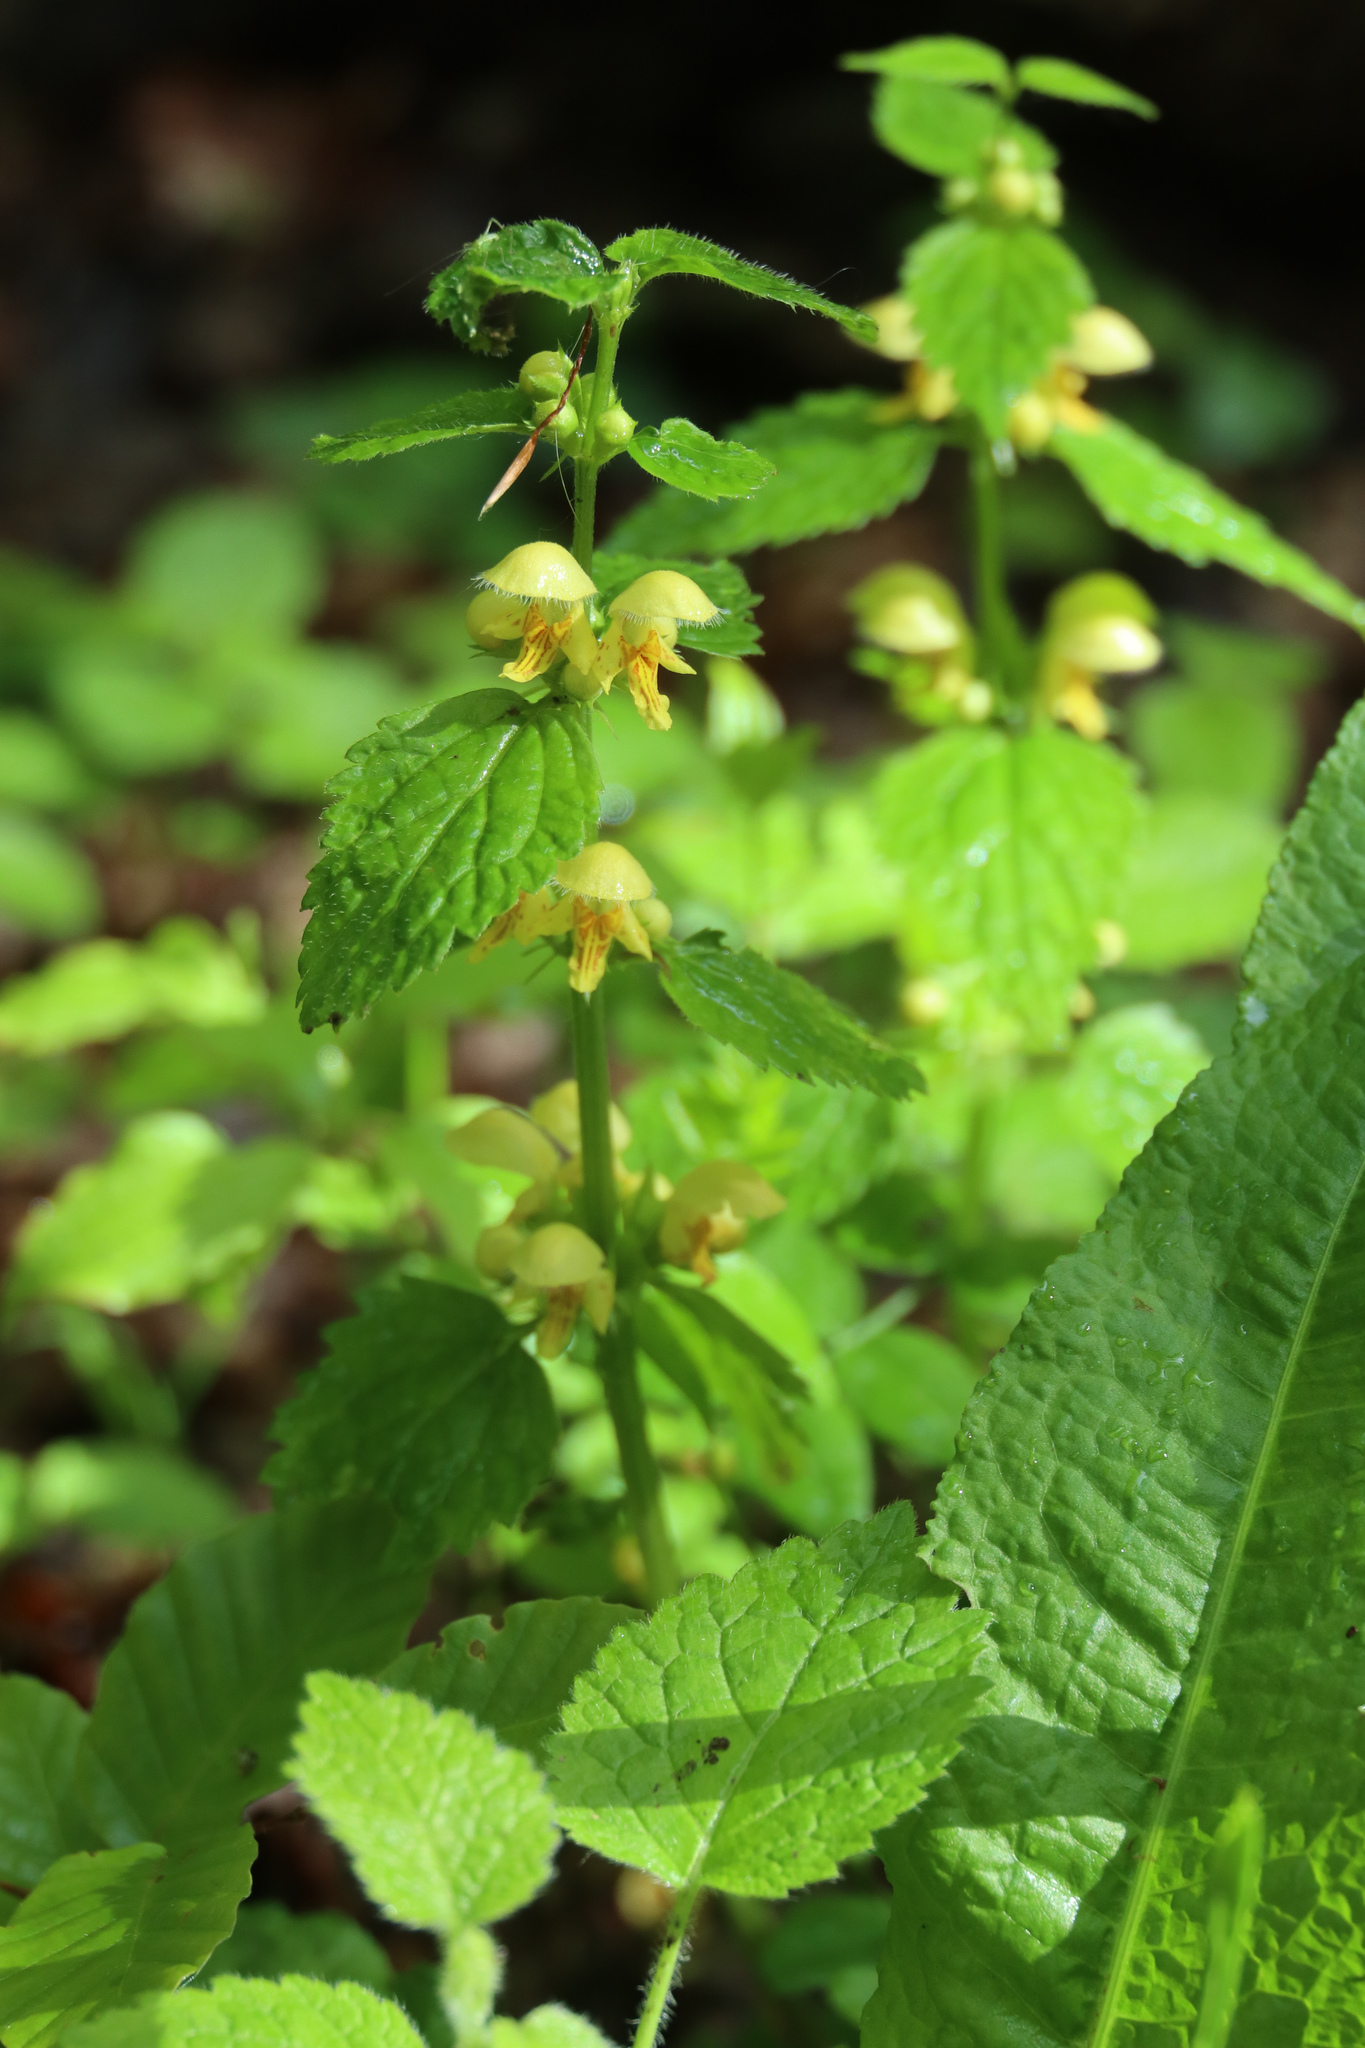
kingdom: Plantae
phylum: Tracheophyta
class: Magnoliopsida
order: Lamiales
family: Lamiaceae
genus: Lamium
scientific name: Lamium galeobdolon
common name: Yellow archangel
